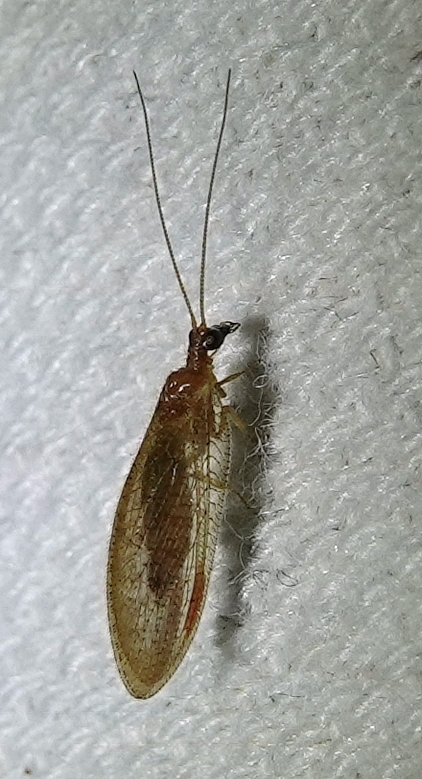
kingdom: Animalia
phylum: Arthropoda
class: Insecta
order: Neuroptera
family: Hemerobiidae
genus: Hemerobius
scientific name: Hemerobius stigma
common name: Brown pine lacewing
